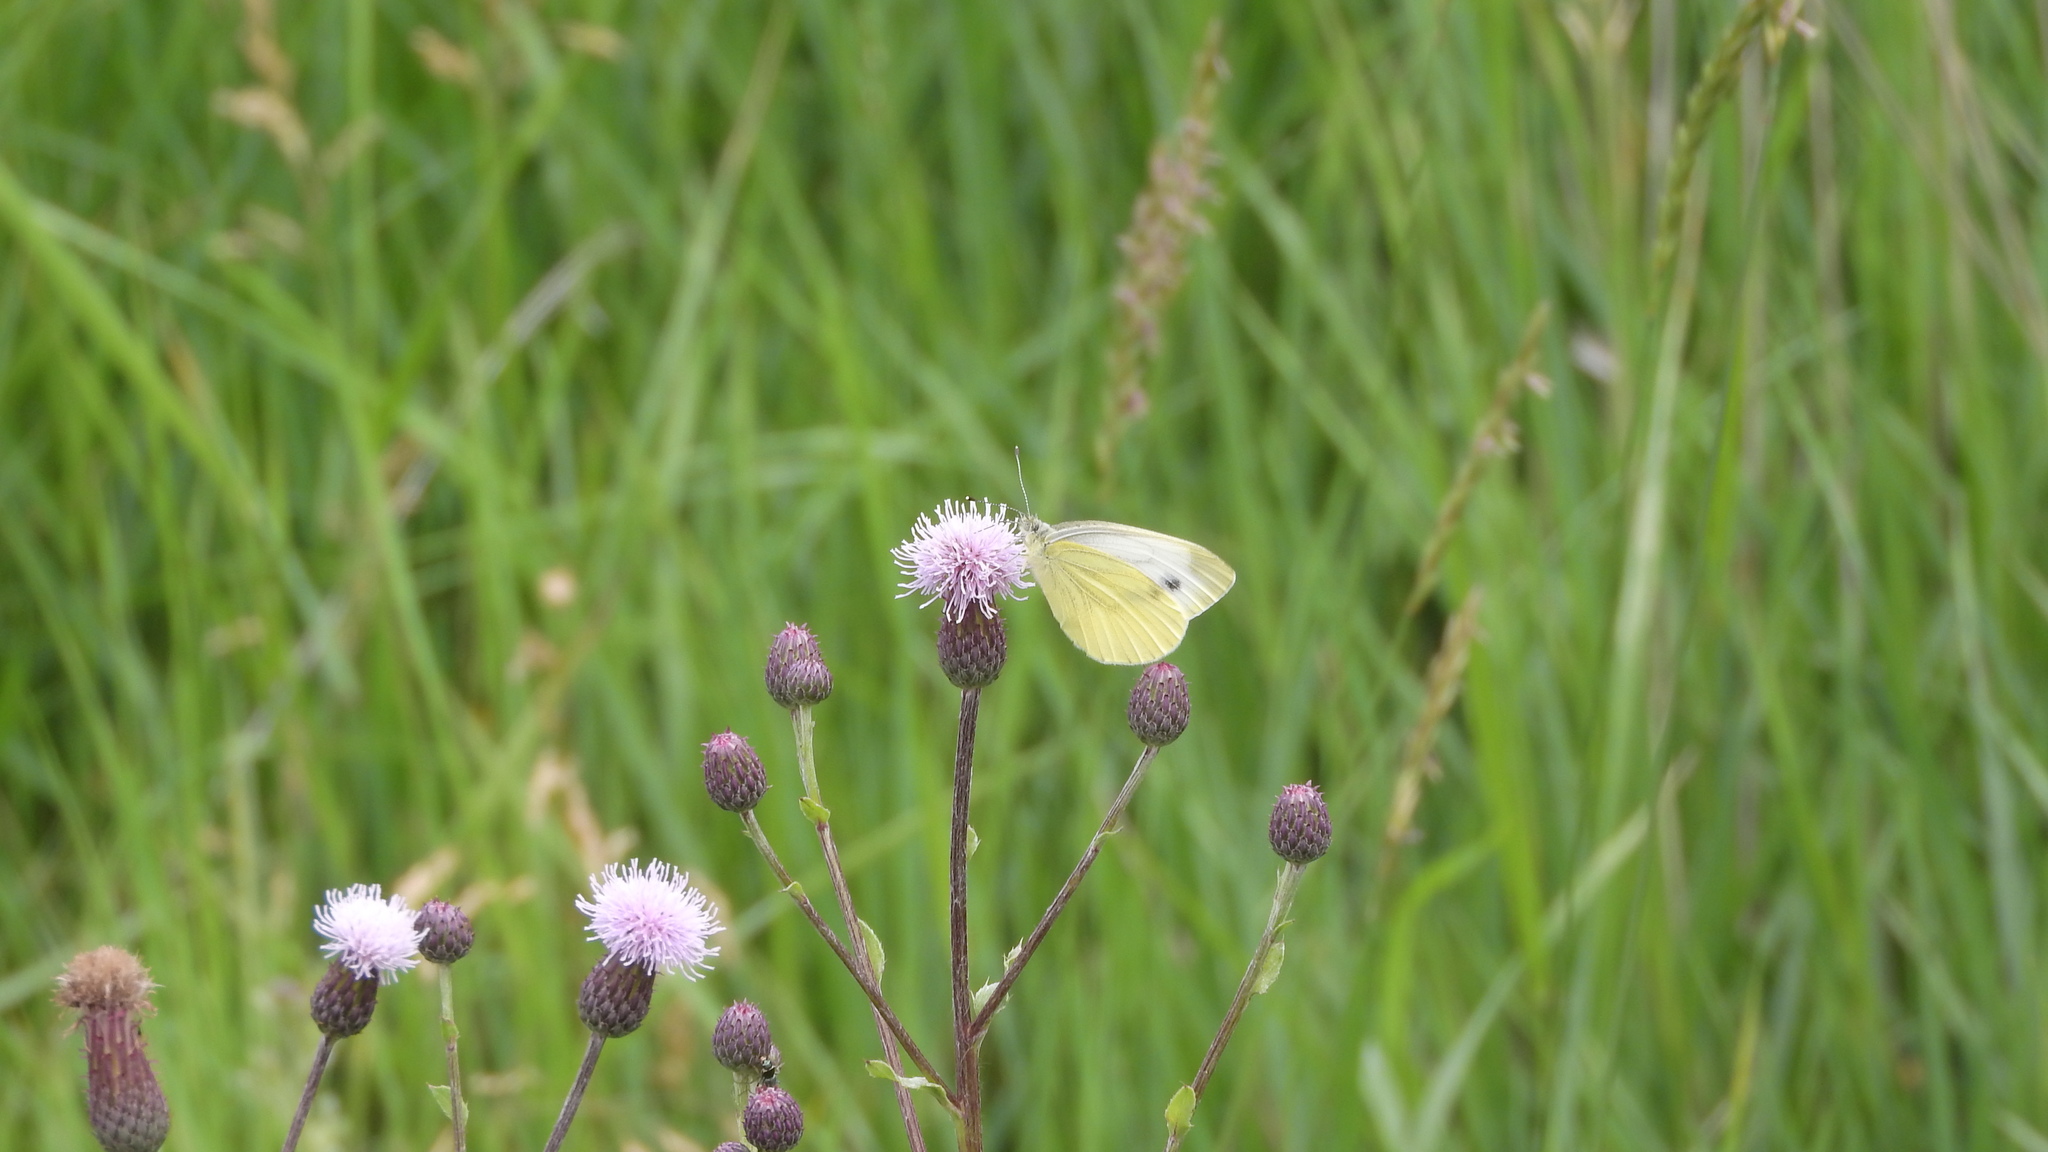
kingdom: Animalia
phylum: Arthropoda
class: Insecta
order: Lepidoptera
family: Pieridae
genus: Pieris
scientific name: Pieris napi
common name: Green-veined white
